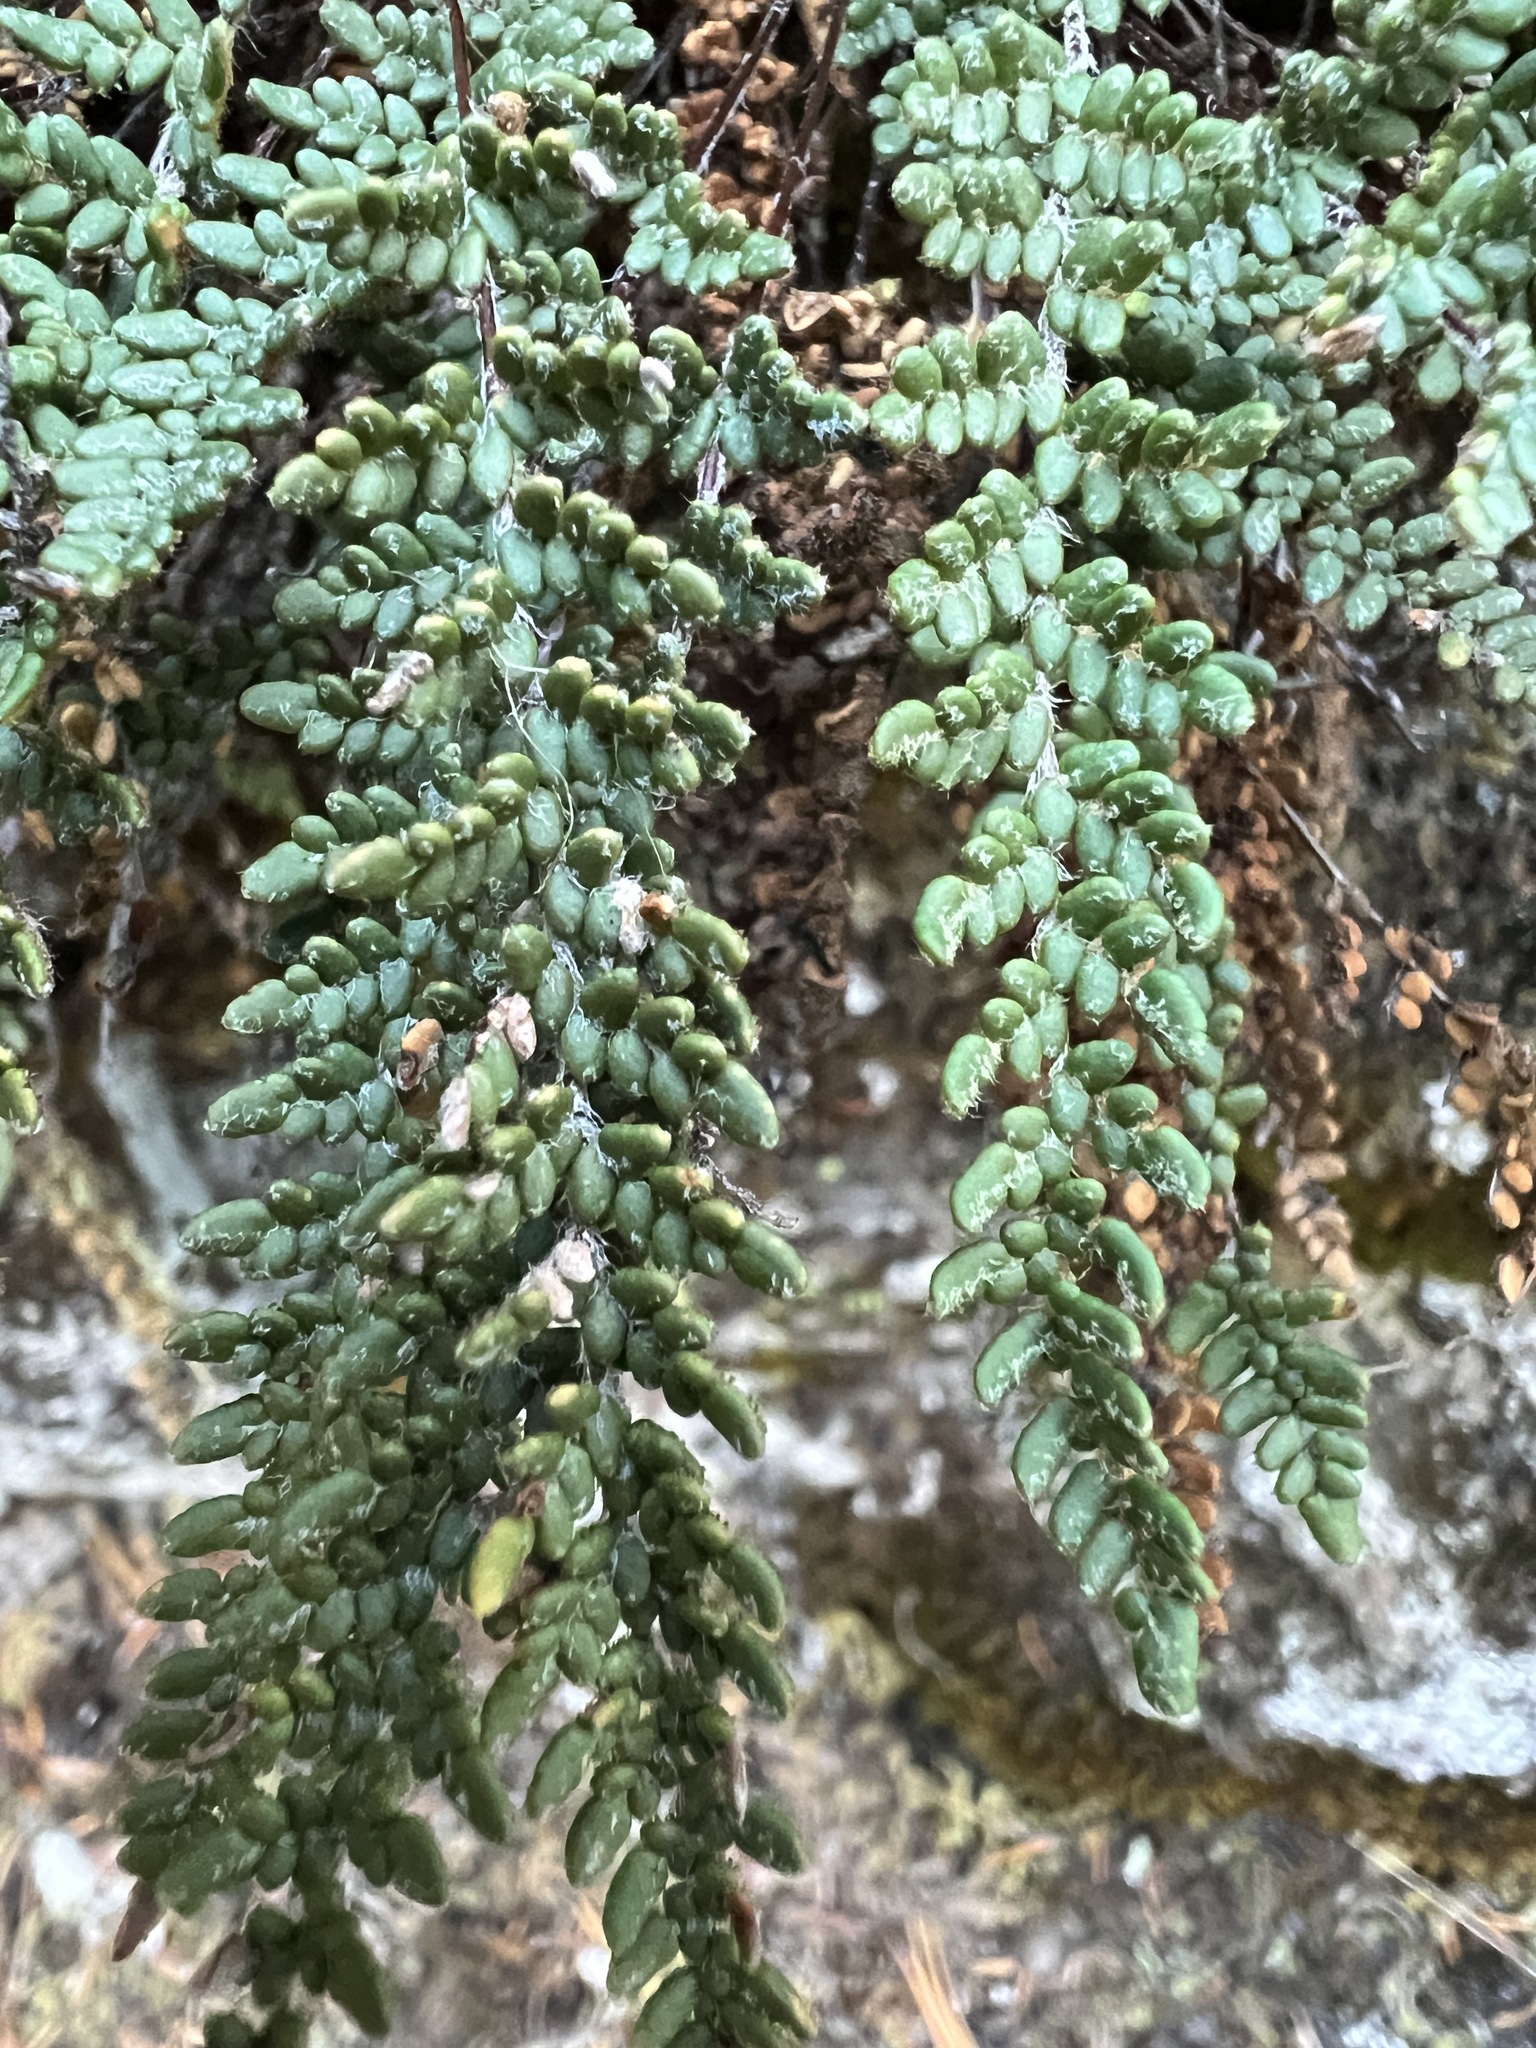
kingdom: Plantae
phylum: Tracheophyta
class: Polypodiopsida
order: Polypodiales
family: Pteridaceae
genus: Myriopteris
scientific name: Myriopteris gracillima
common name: Lace fern
